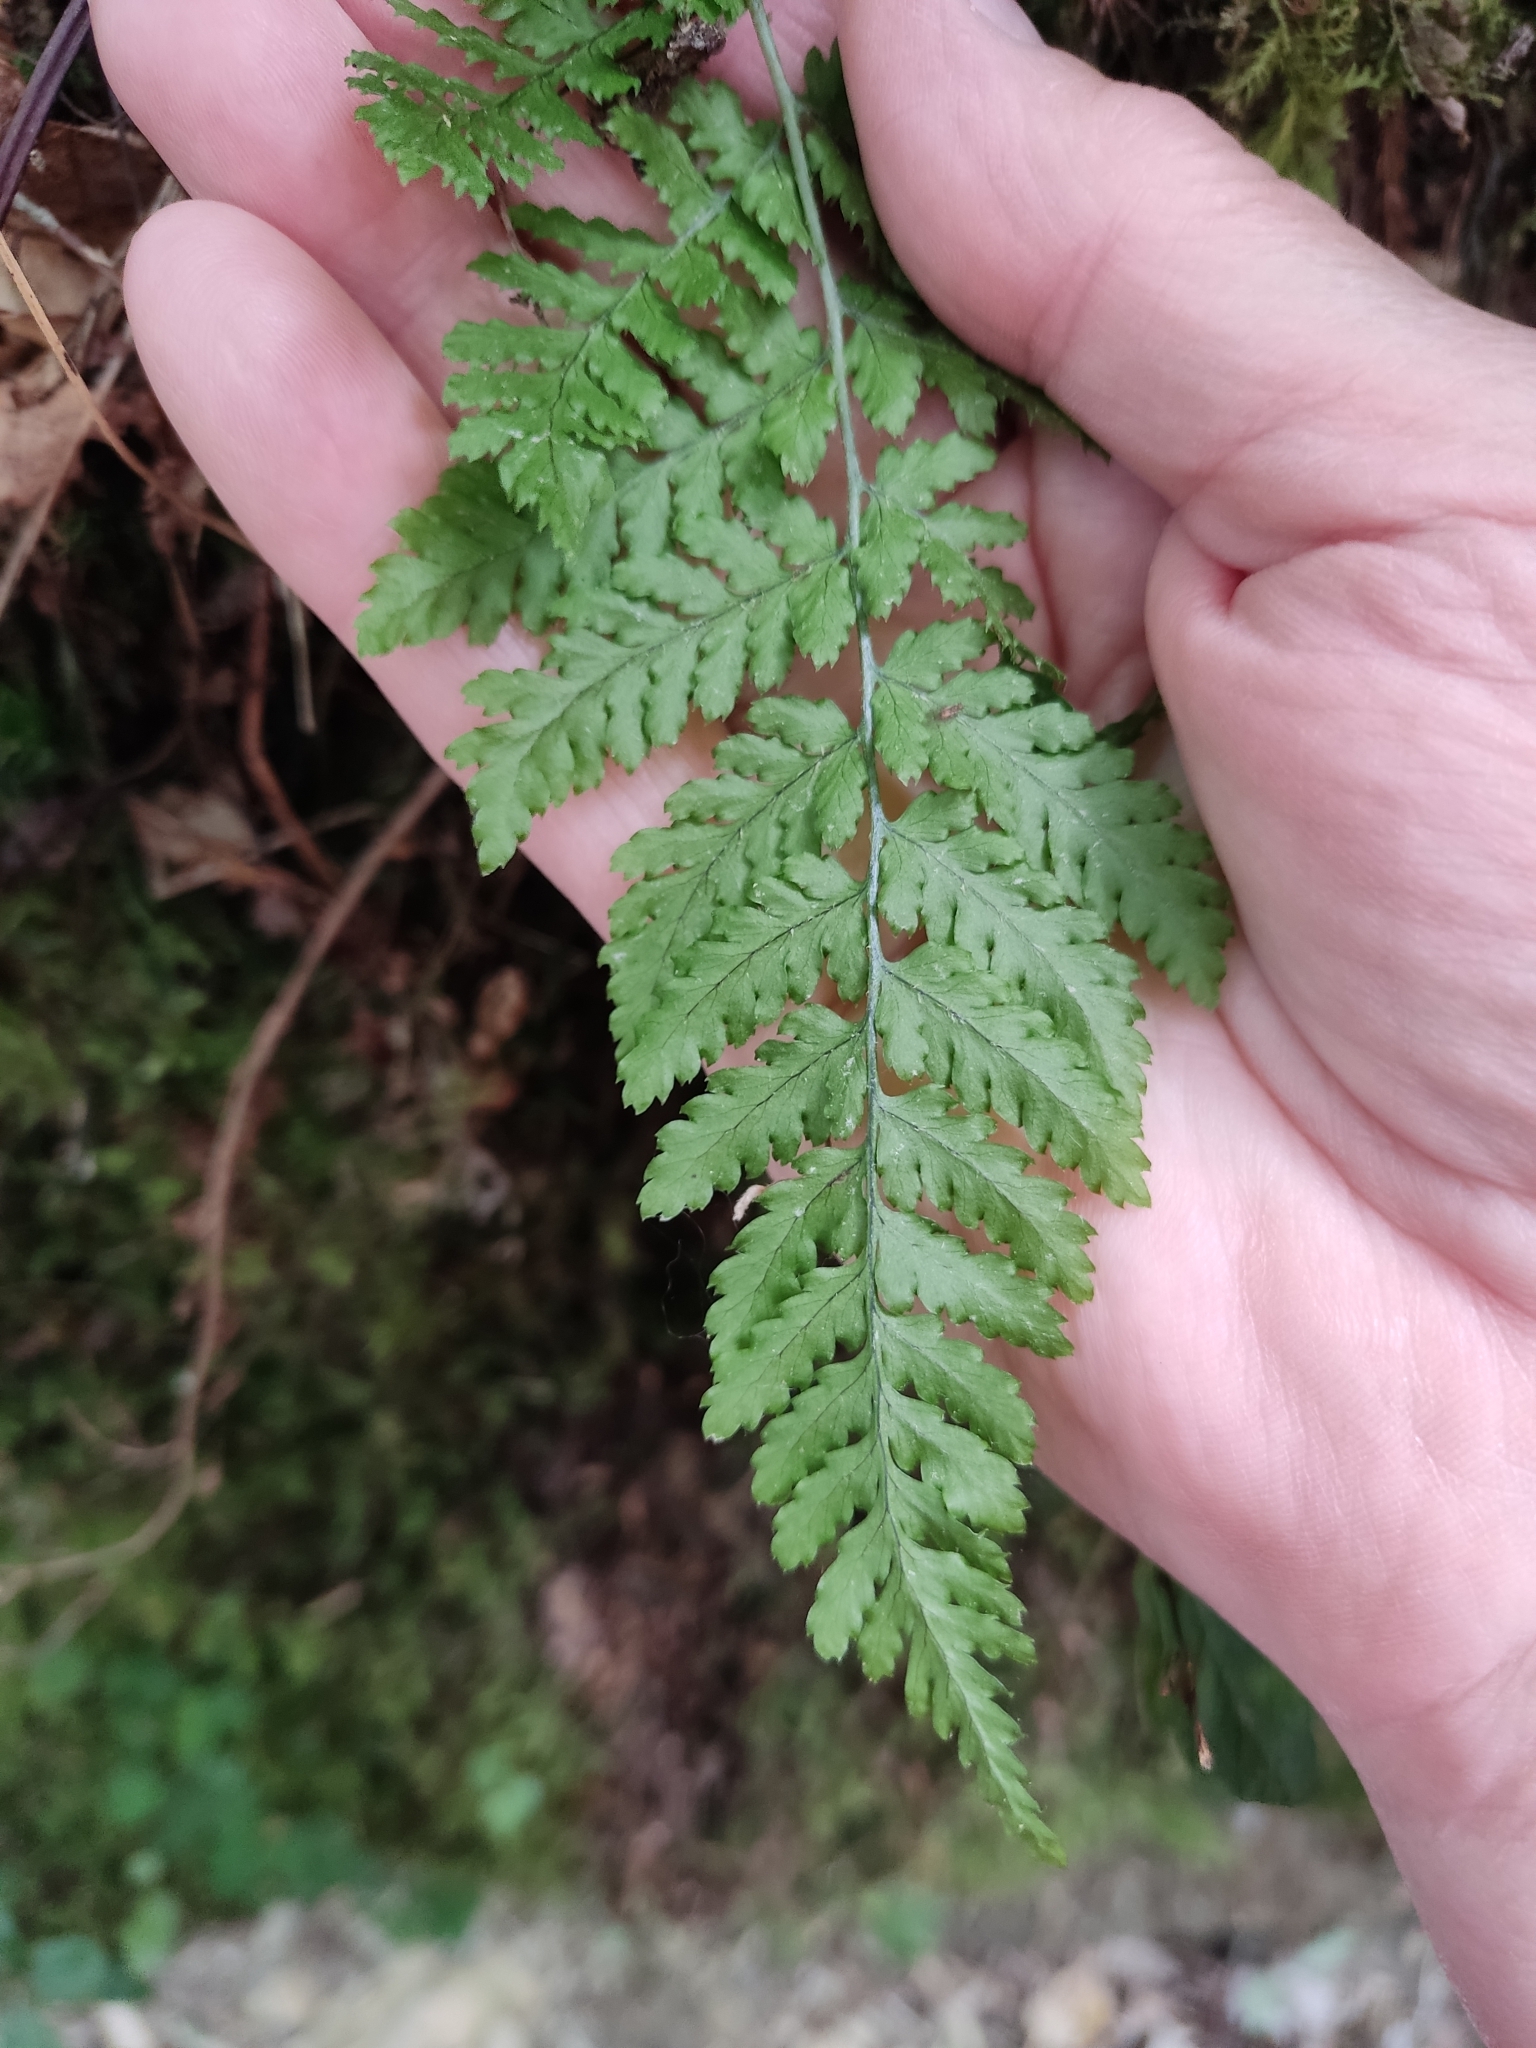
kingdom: Plantae
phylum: Tracheophyta
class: Polypodiopsida
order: Polypodiales
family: Dryopteridaceae
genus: Dryopteris
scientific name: Dryopteris aemula
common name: Hay-scented buckler-fern
